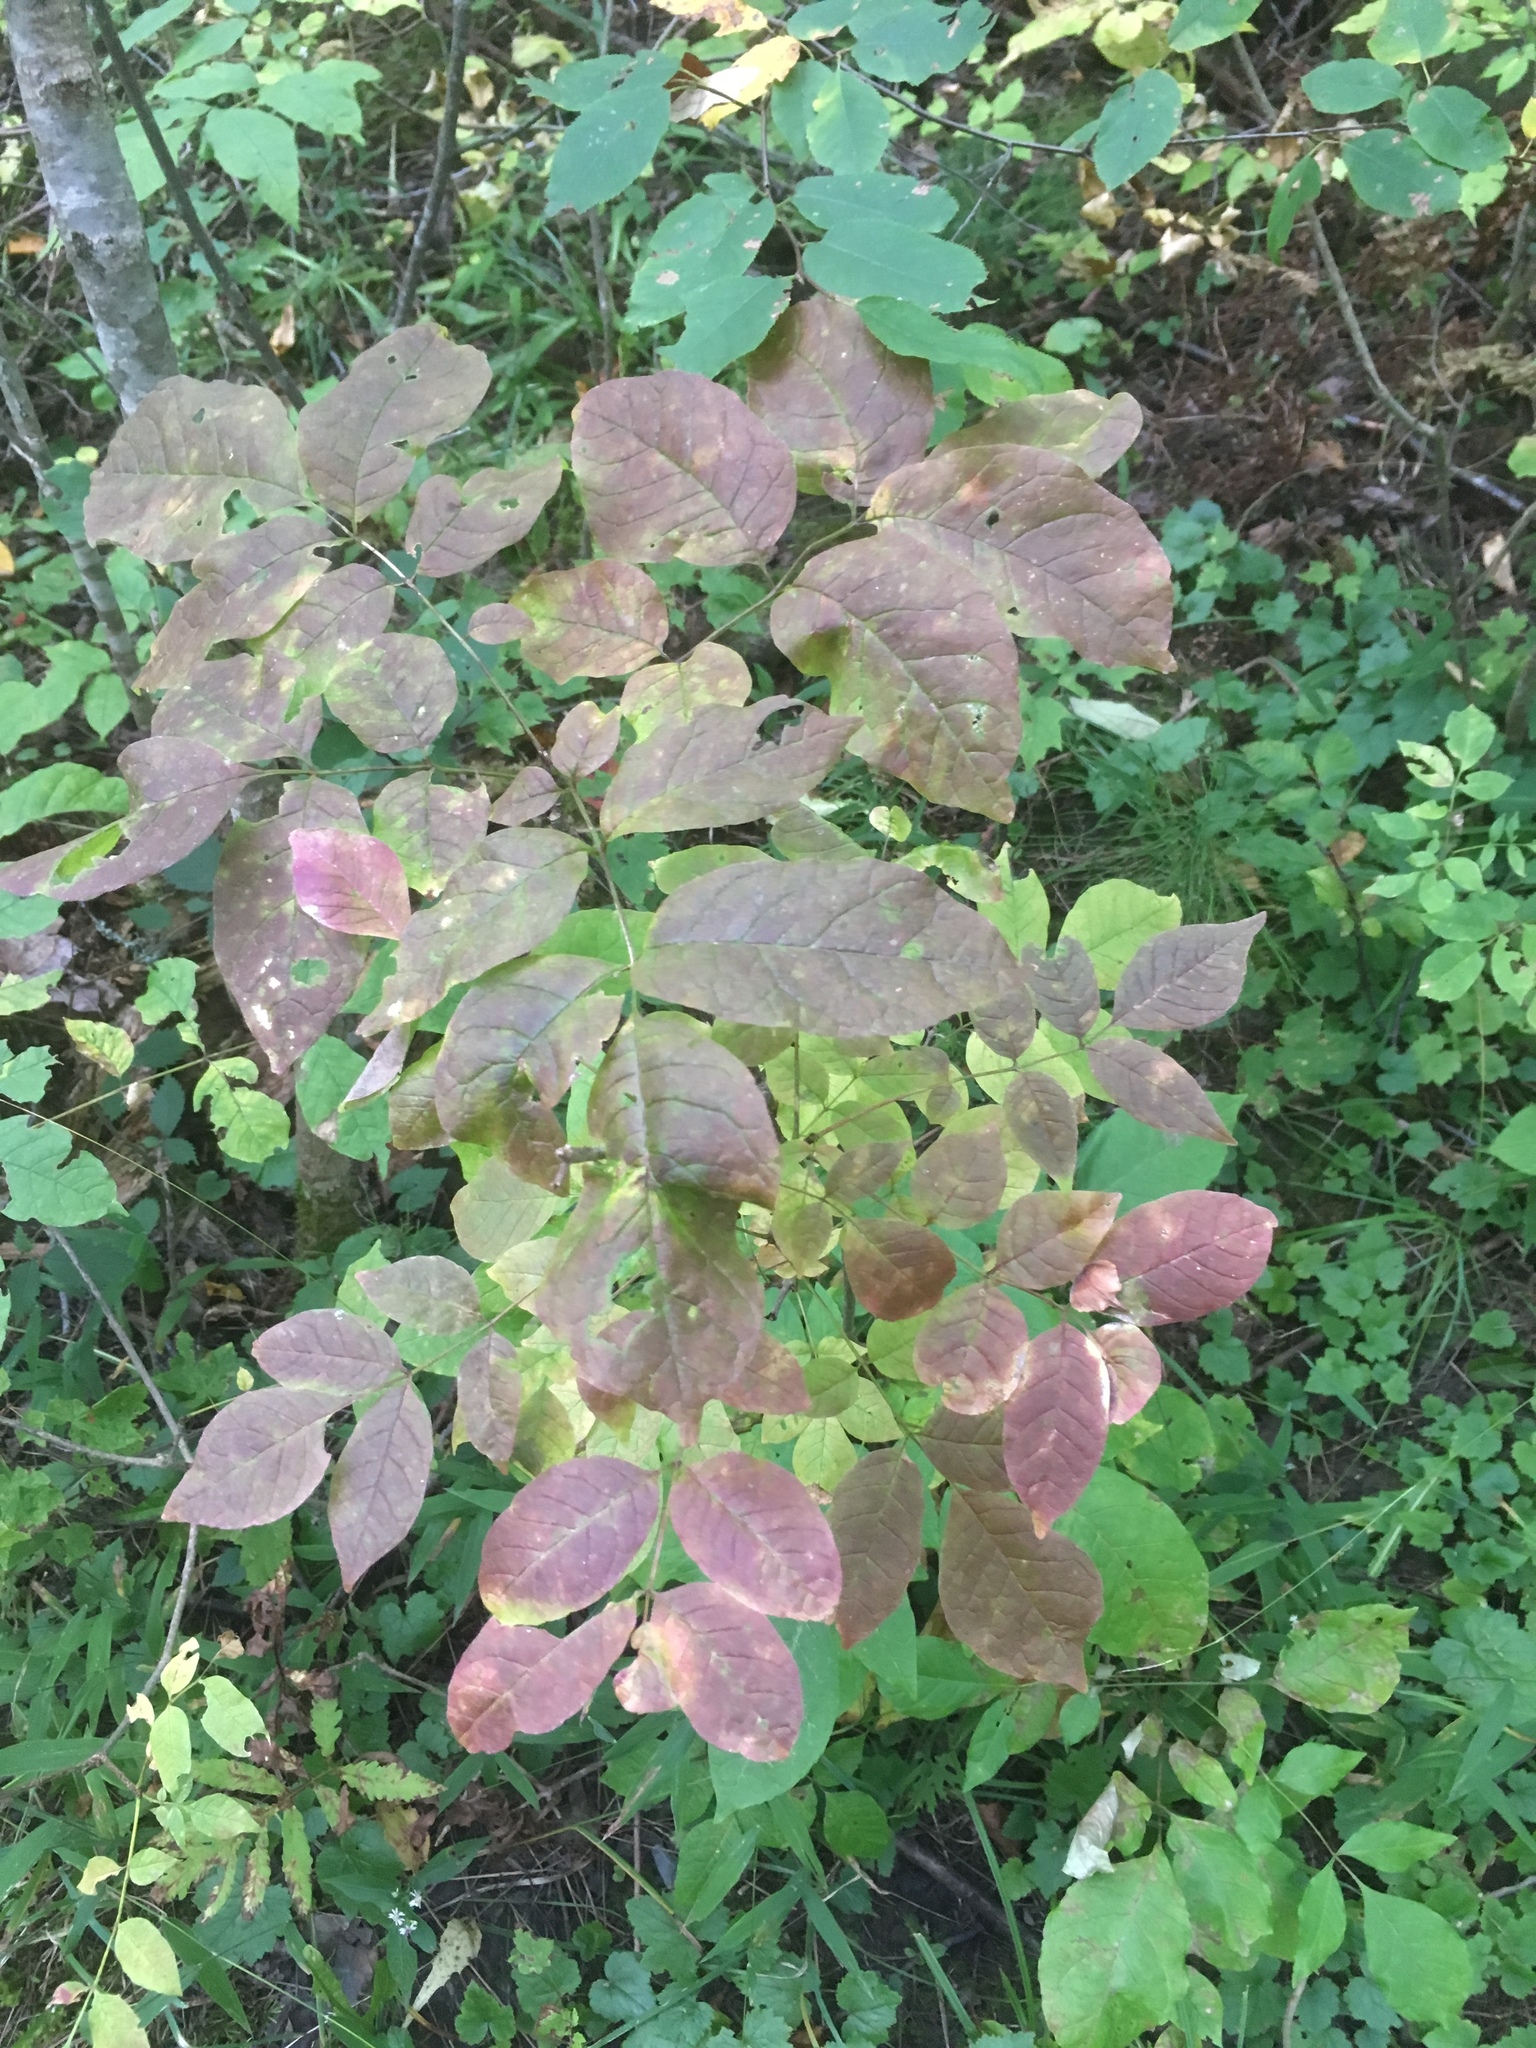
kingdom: Plantae
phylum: Tracheophyta
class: Magnoliopsida
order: Lamiales
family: Oleaceae
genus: Fraxinus
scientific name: Fraxinus americana
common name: White ash
